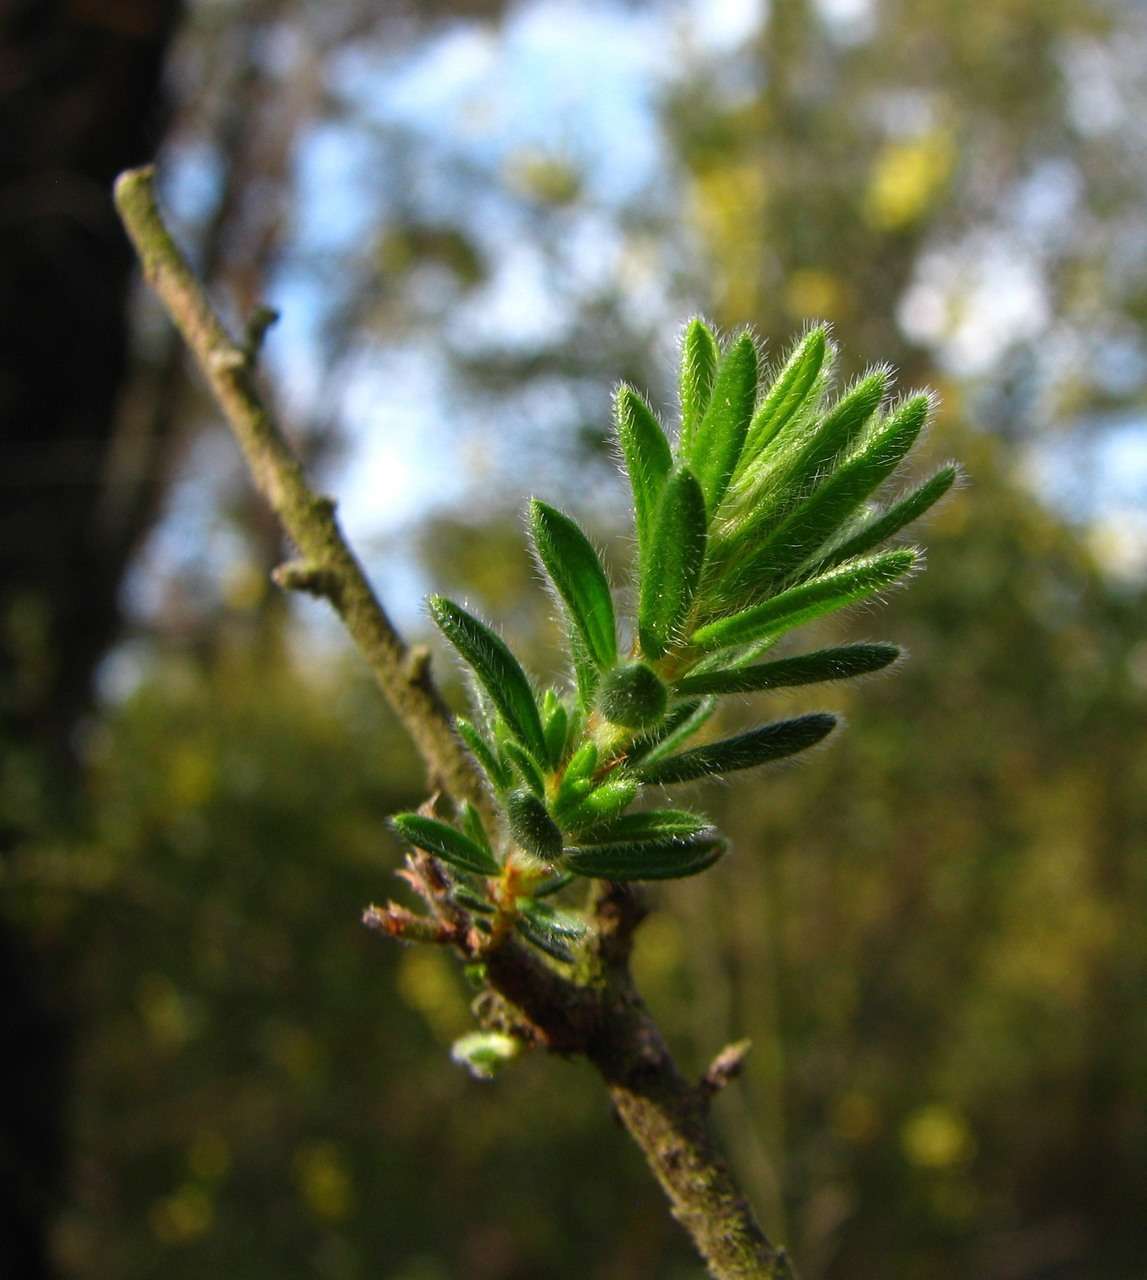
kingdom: Plantae
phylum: Tracheophyta
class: Magnoliopsida
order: Fabales
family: Fabaceae
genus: Pultenaea
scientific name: Pultenaea daltonii
